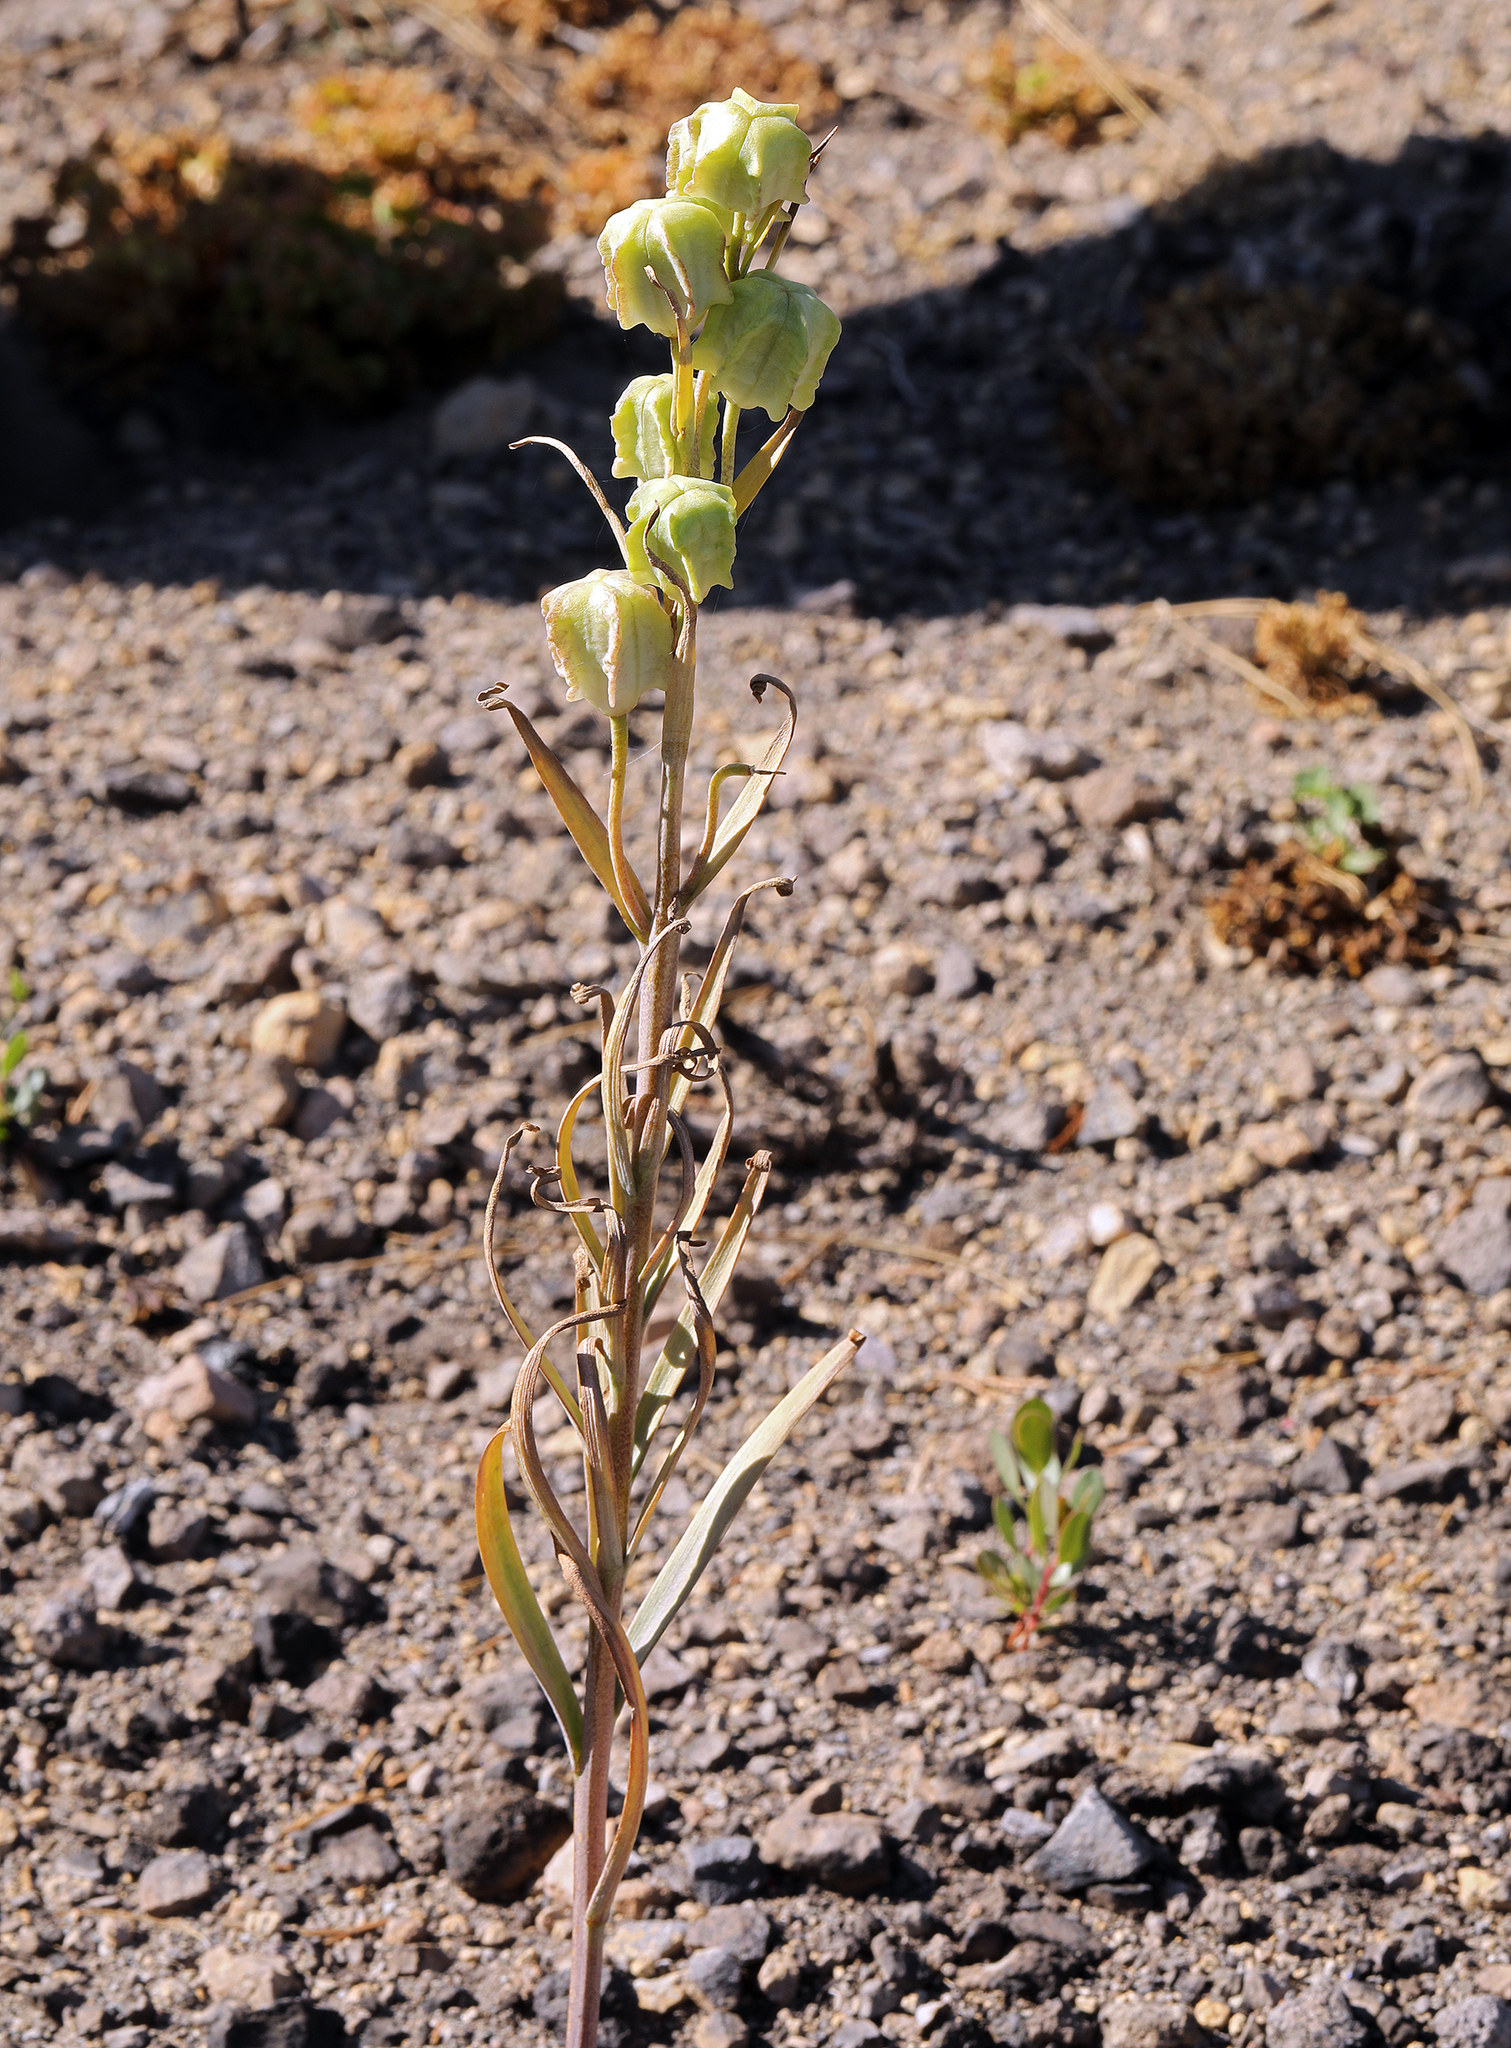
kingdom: Plantae
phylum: Tracheophyta
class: Liliopsida
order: Liliales
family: Liliaceae
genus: Fritillaria
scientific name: Fritillaria atropurpurea
